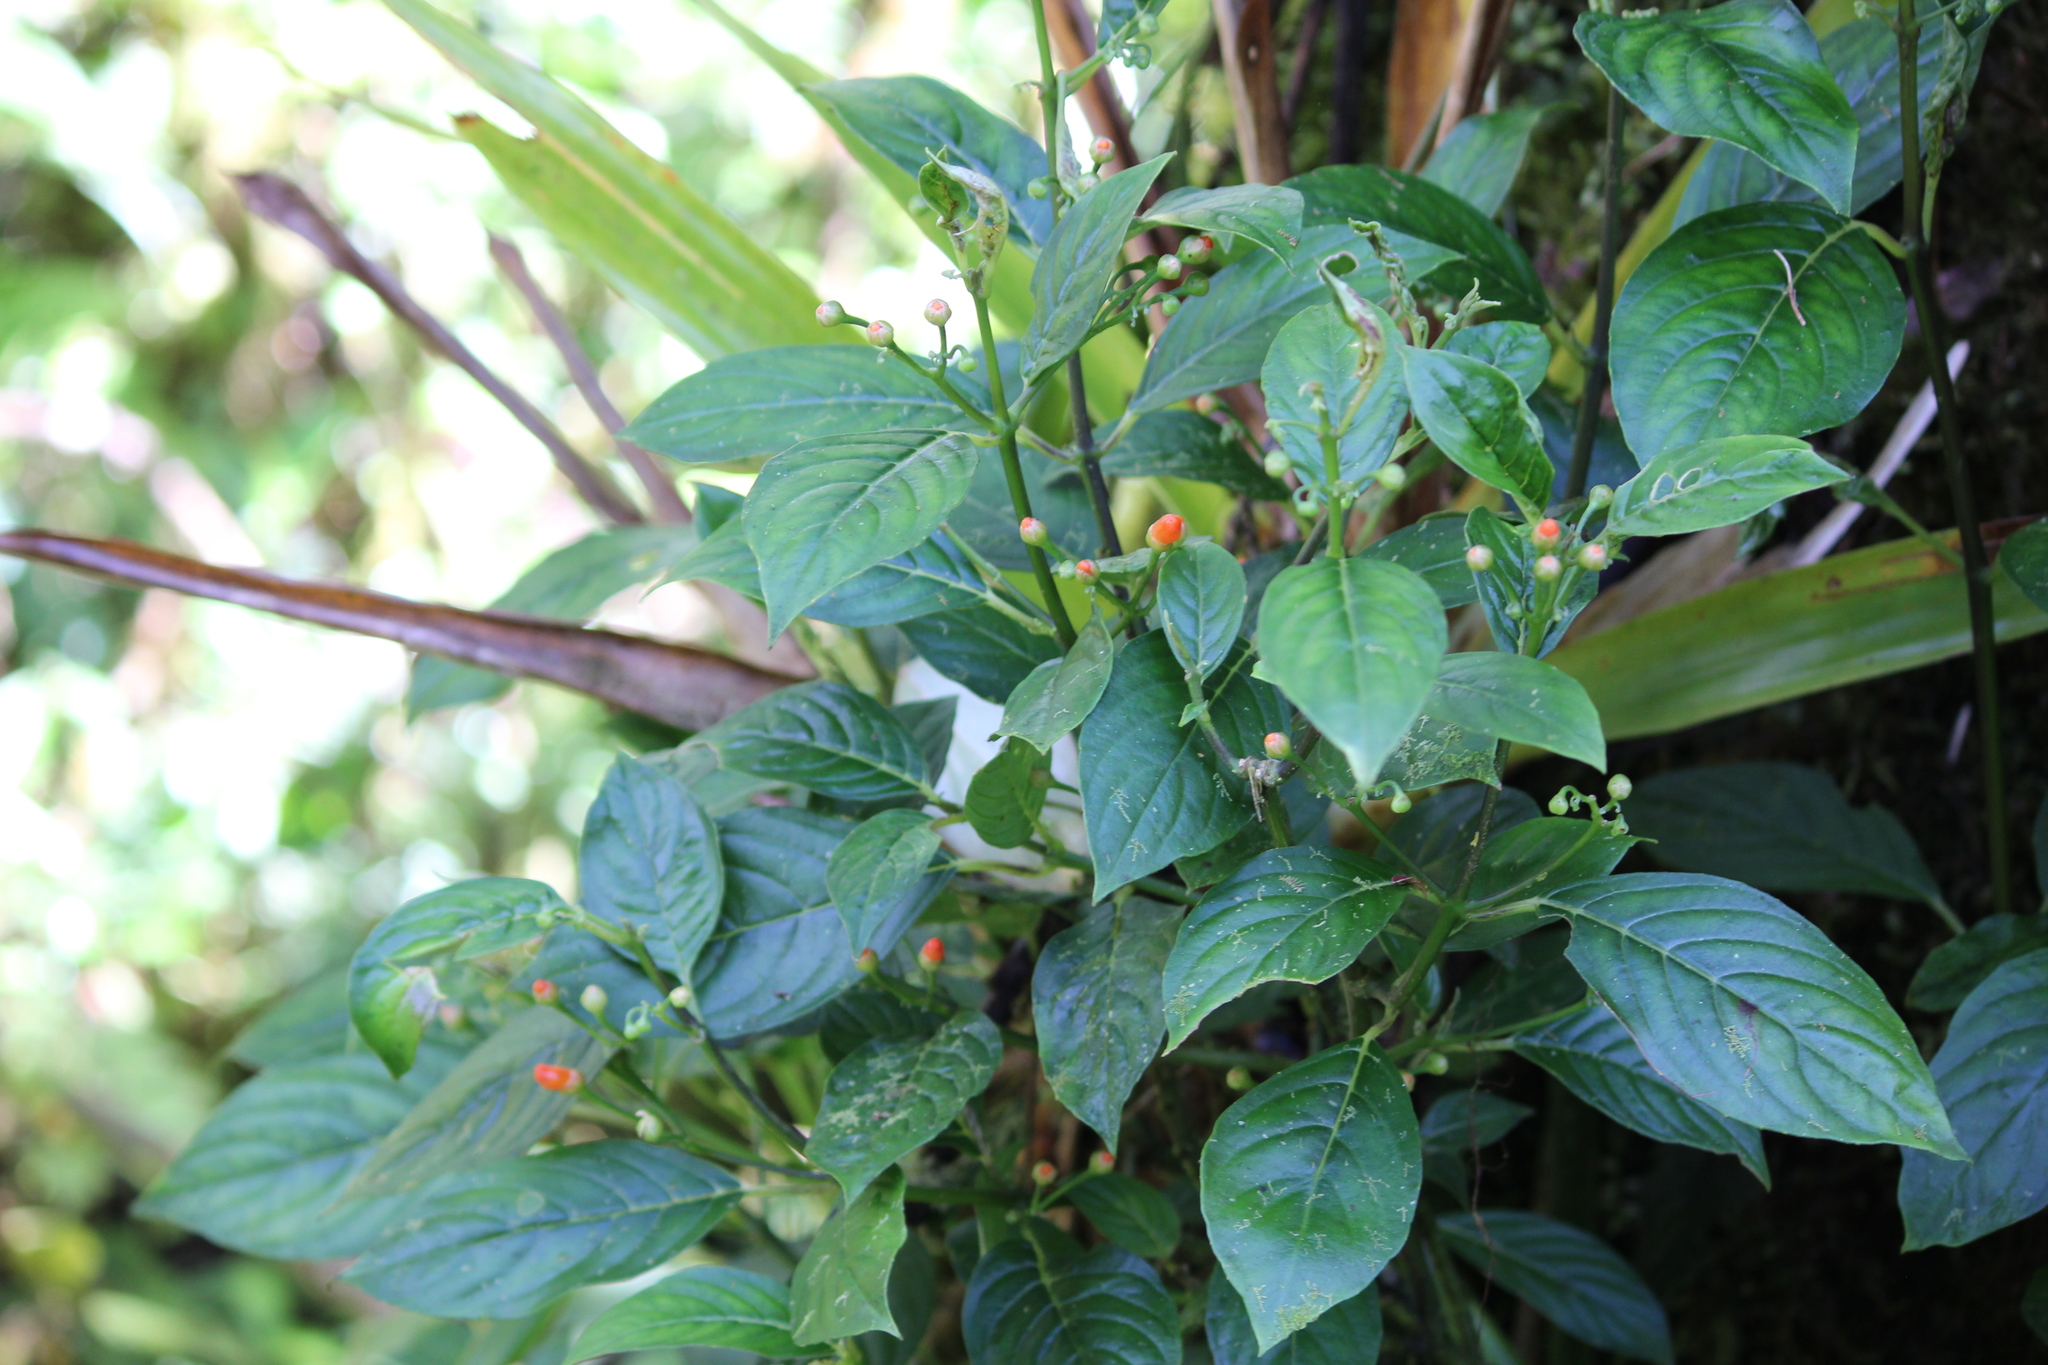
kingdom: Plantae
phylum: Tracheophyta
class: Magnoliopsida
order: Lamiales
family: Gesneriaceae
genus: Besleria
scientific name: Besleria triflora
